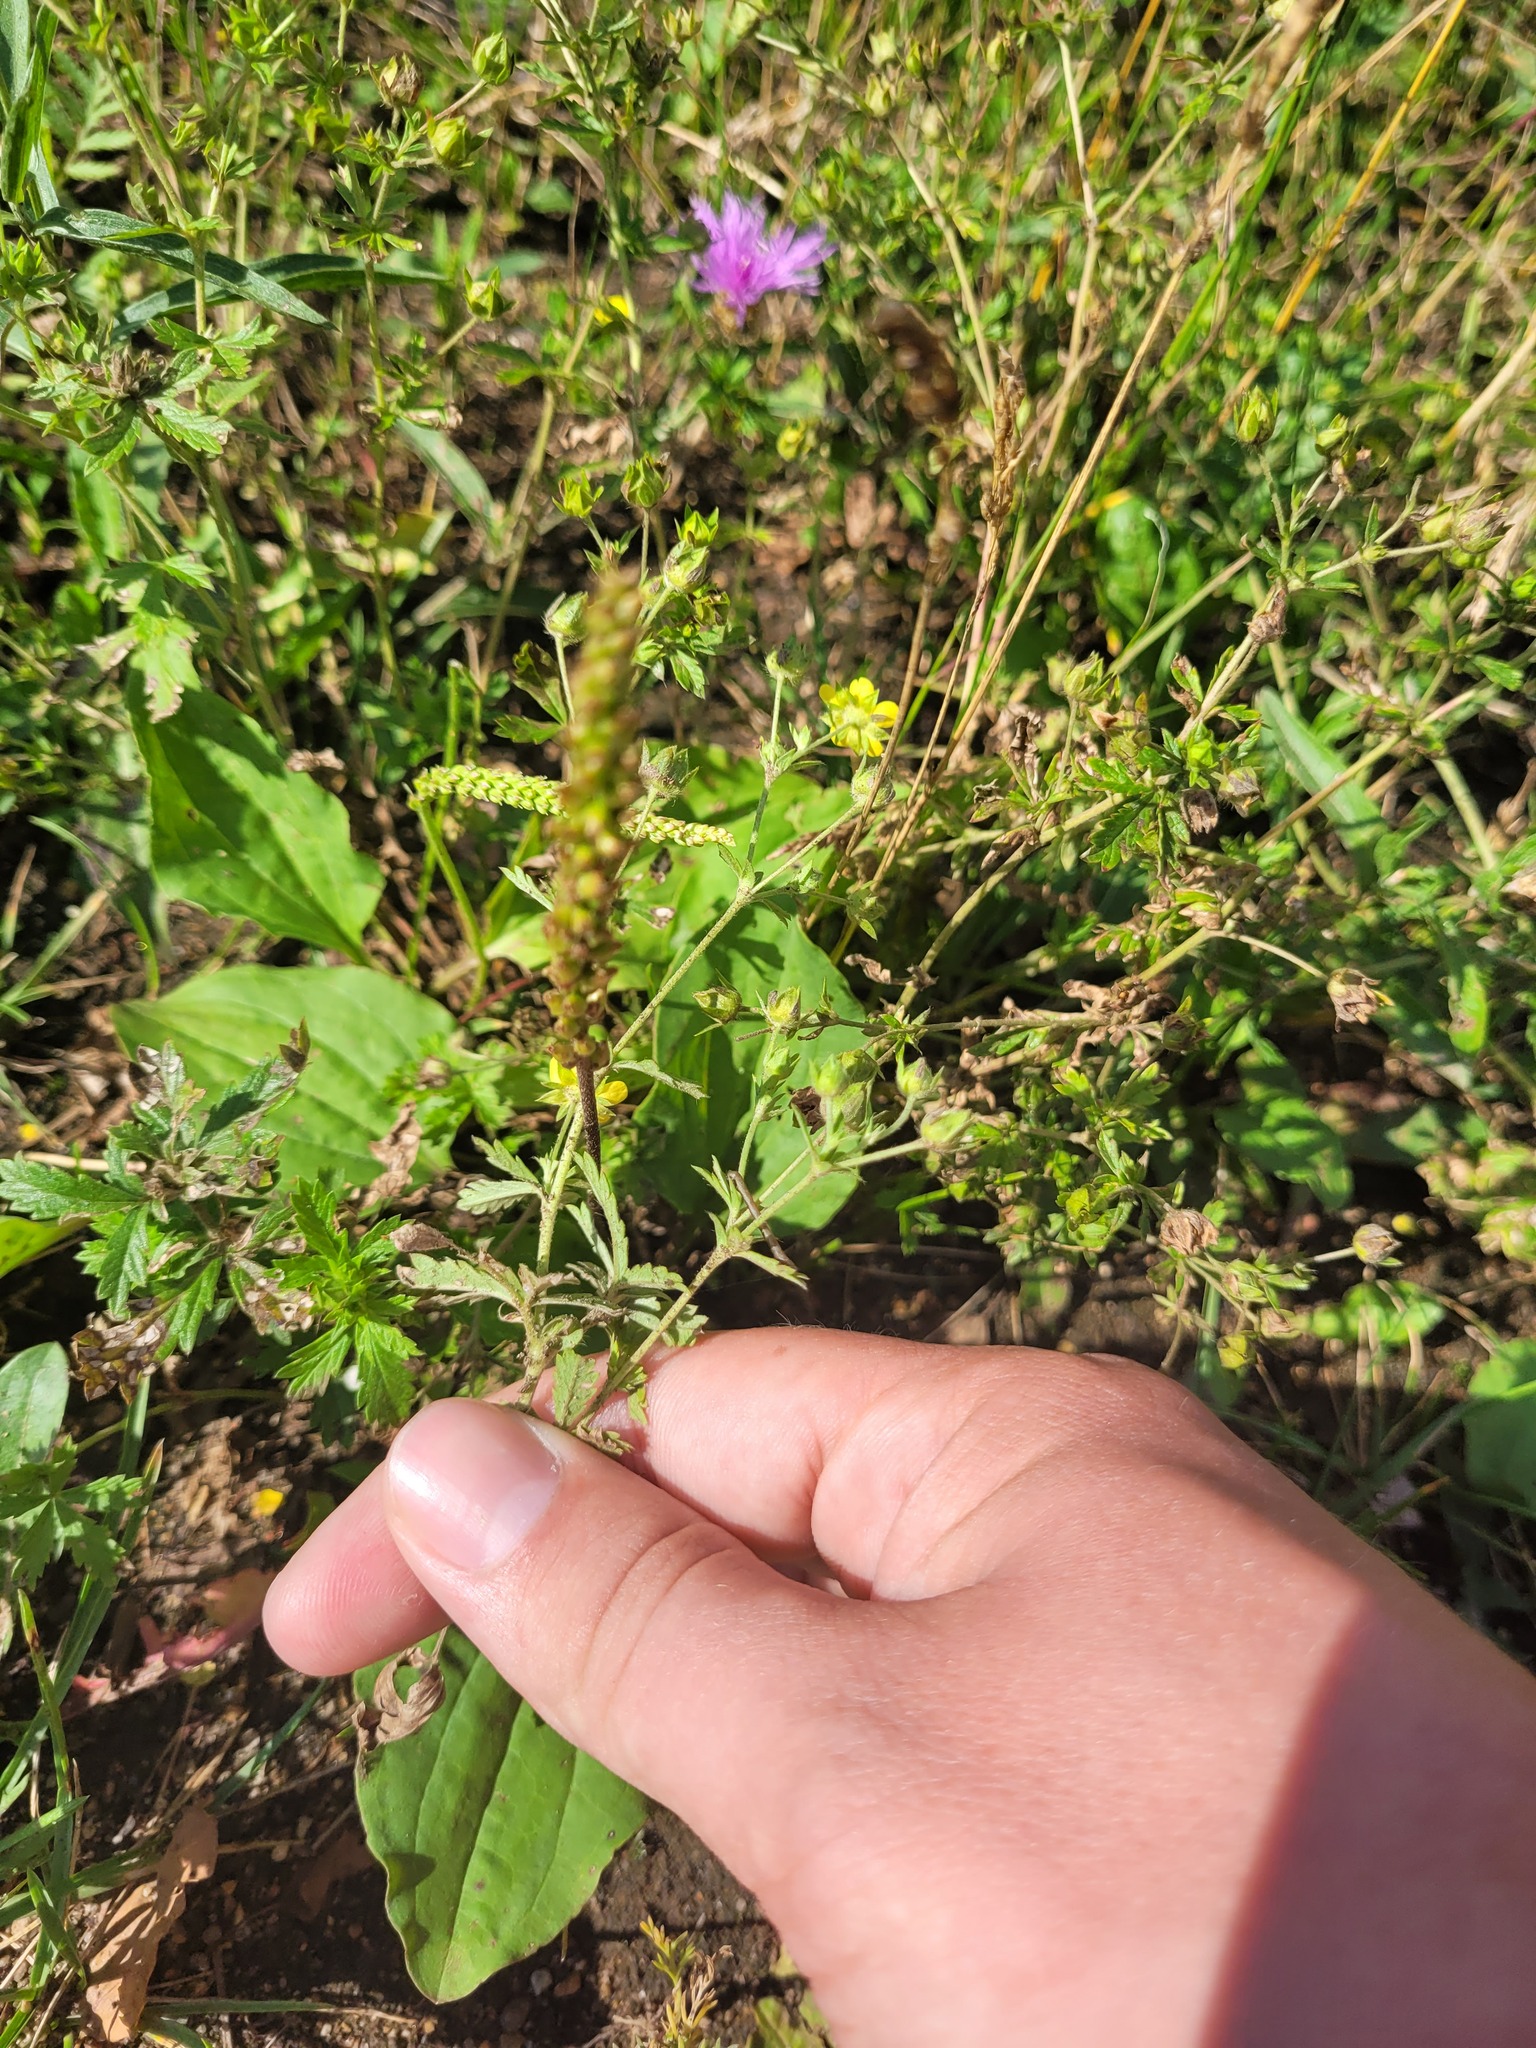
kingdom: Plantae
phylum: Tracheophyta
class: Magnoliopsida
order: Rosales
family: Rosaceae
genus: Potentilla
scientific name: Potentilla intermedia
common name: Downy cinquefoil
